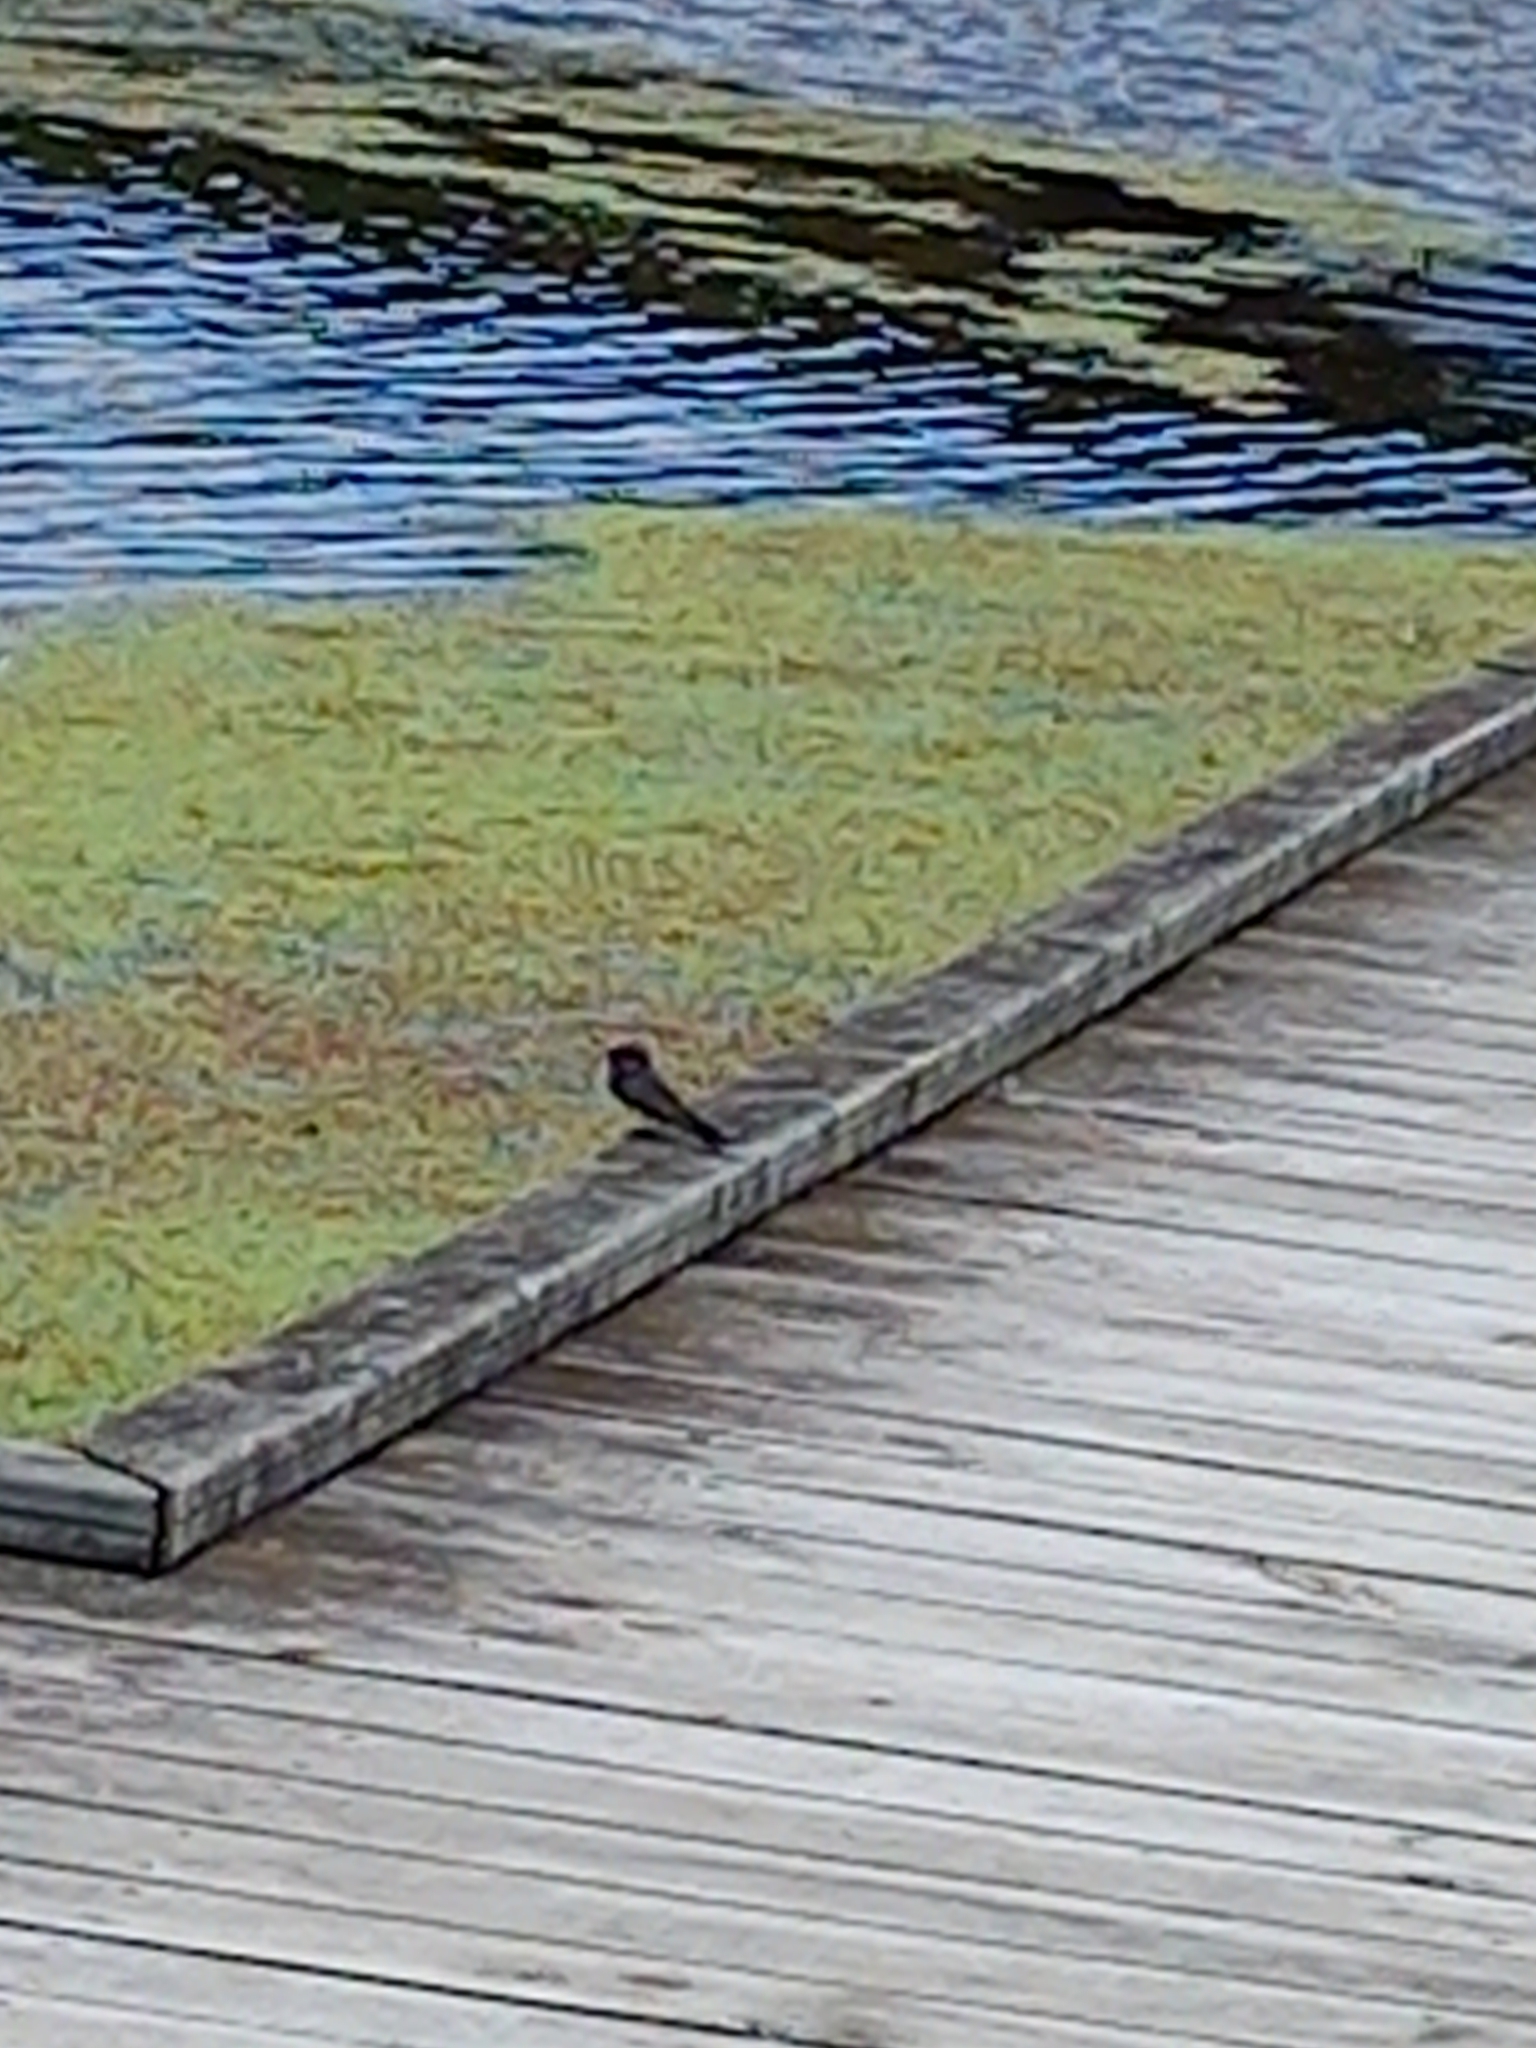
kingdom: Animalia
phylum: Chordata
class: Aves
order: Passeriformes
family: Hirundinidae
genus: Hirundo
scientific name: Hirundo neoxena
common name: Welcome swallow
